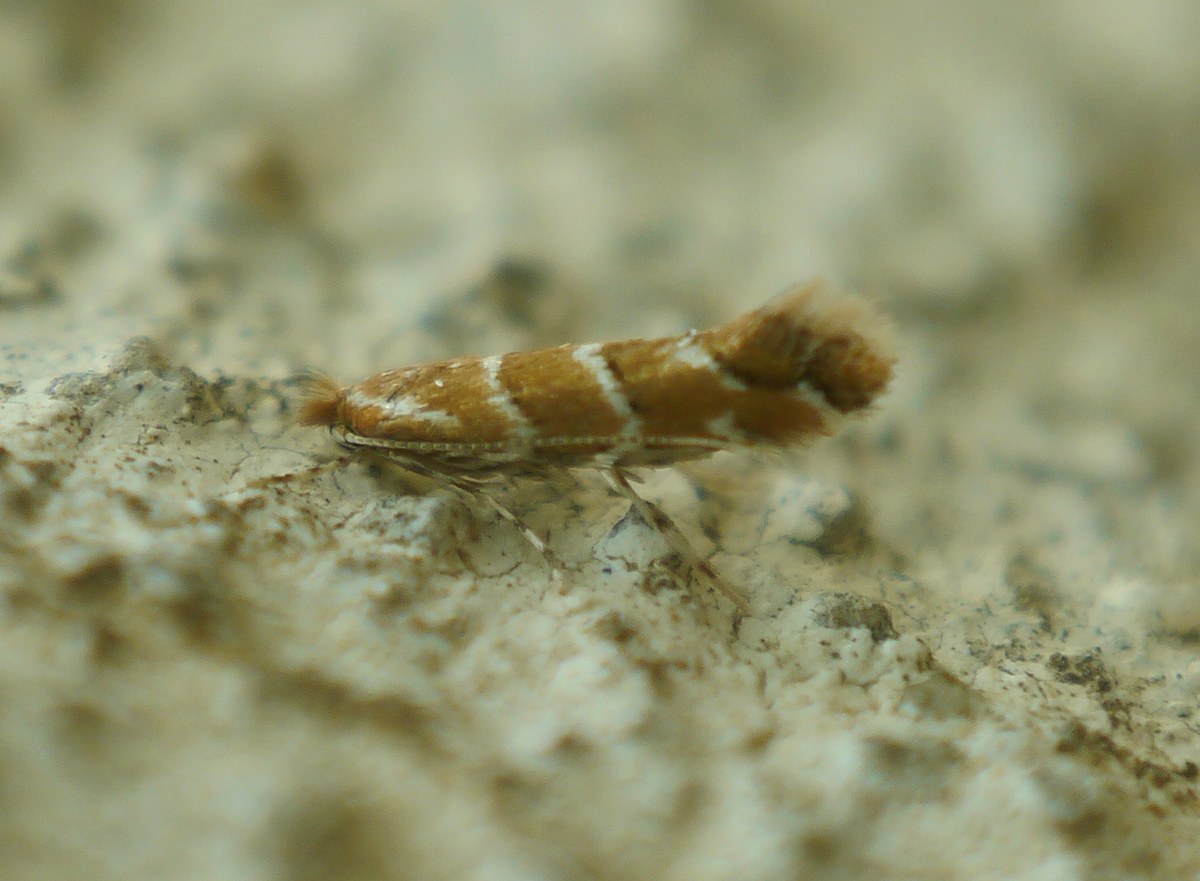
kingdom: Animalia
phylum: Arthropoda
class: Insecta
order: Lepidoptera
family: Gracillariidae
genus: Cameraria
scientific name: Cameraria ohridella
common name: Horse-chestnut leaf-miner
